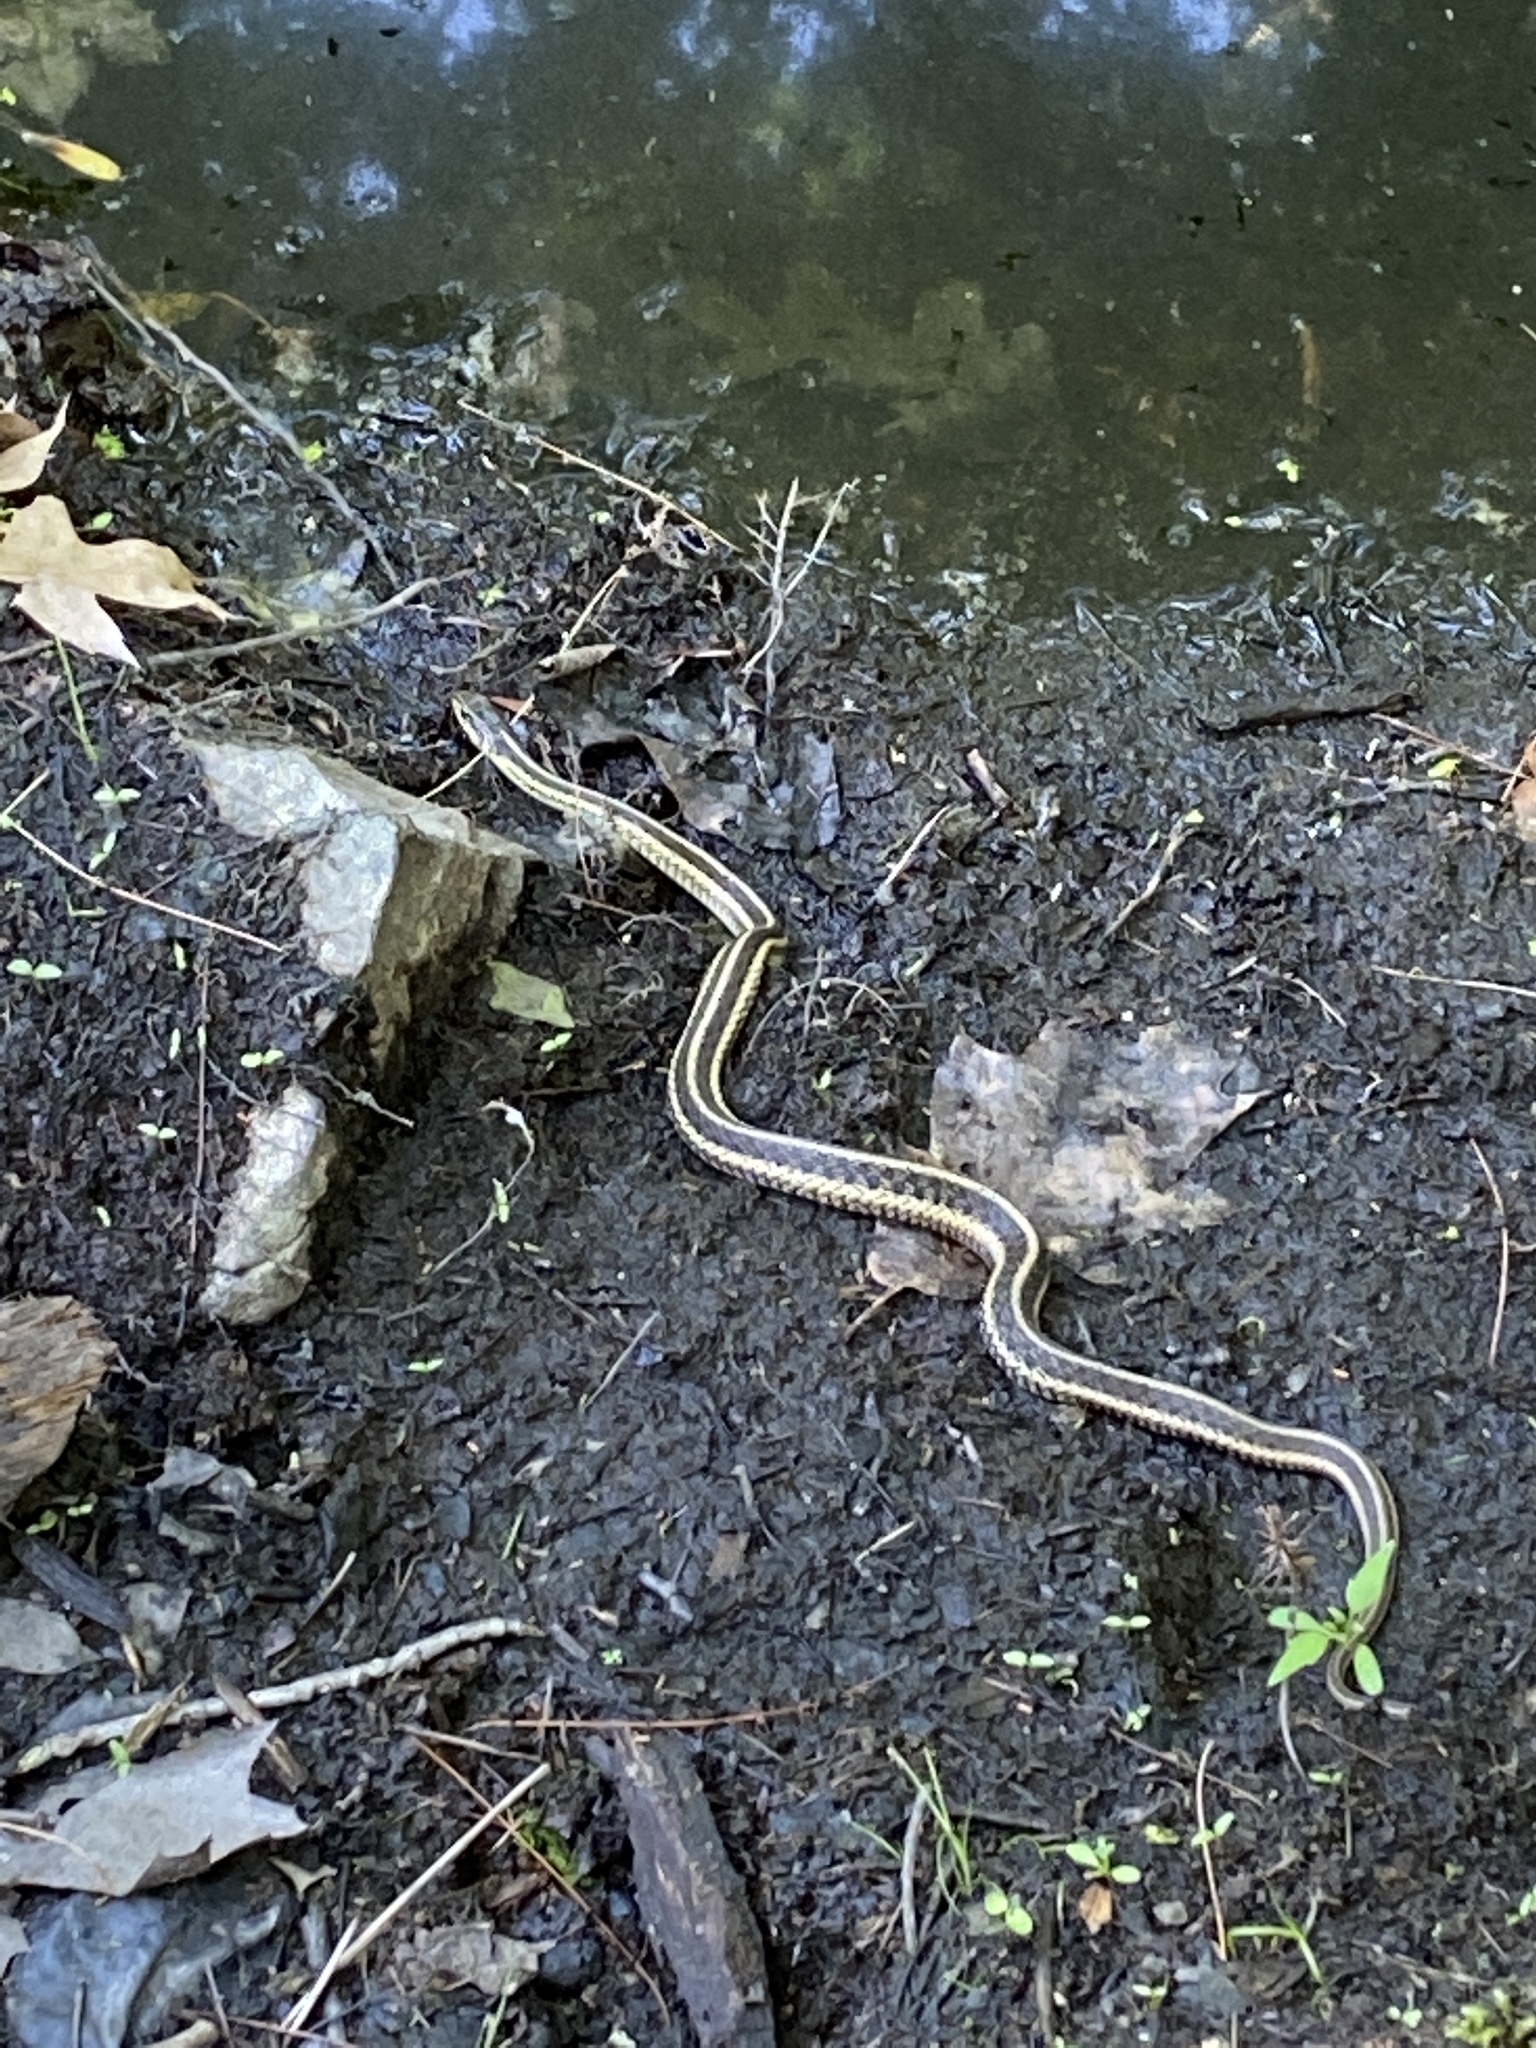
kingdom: Animalia
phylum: Chordata
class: Squamata
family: Colubridae
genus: Thamnophis
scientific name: Thamnophis sirtalis
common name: Common garter snake
